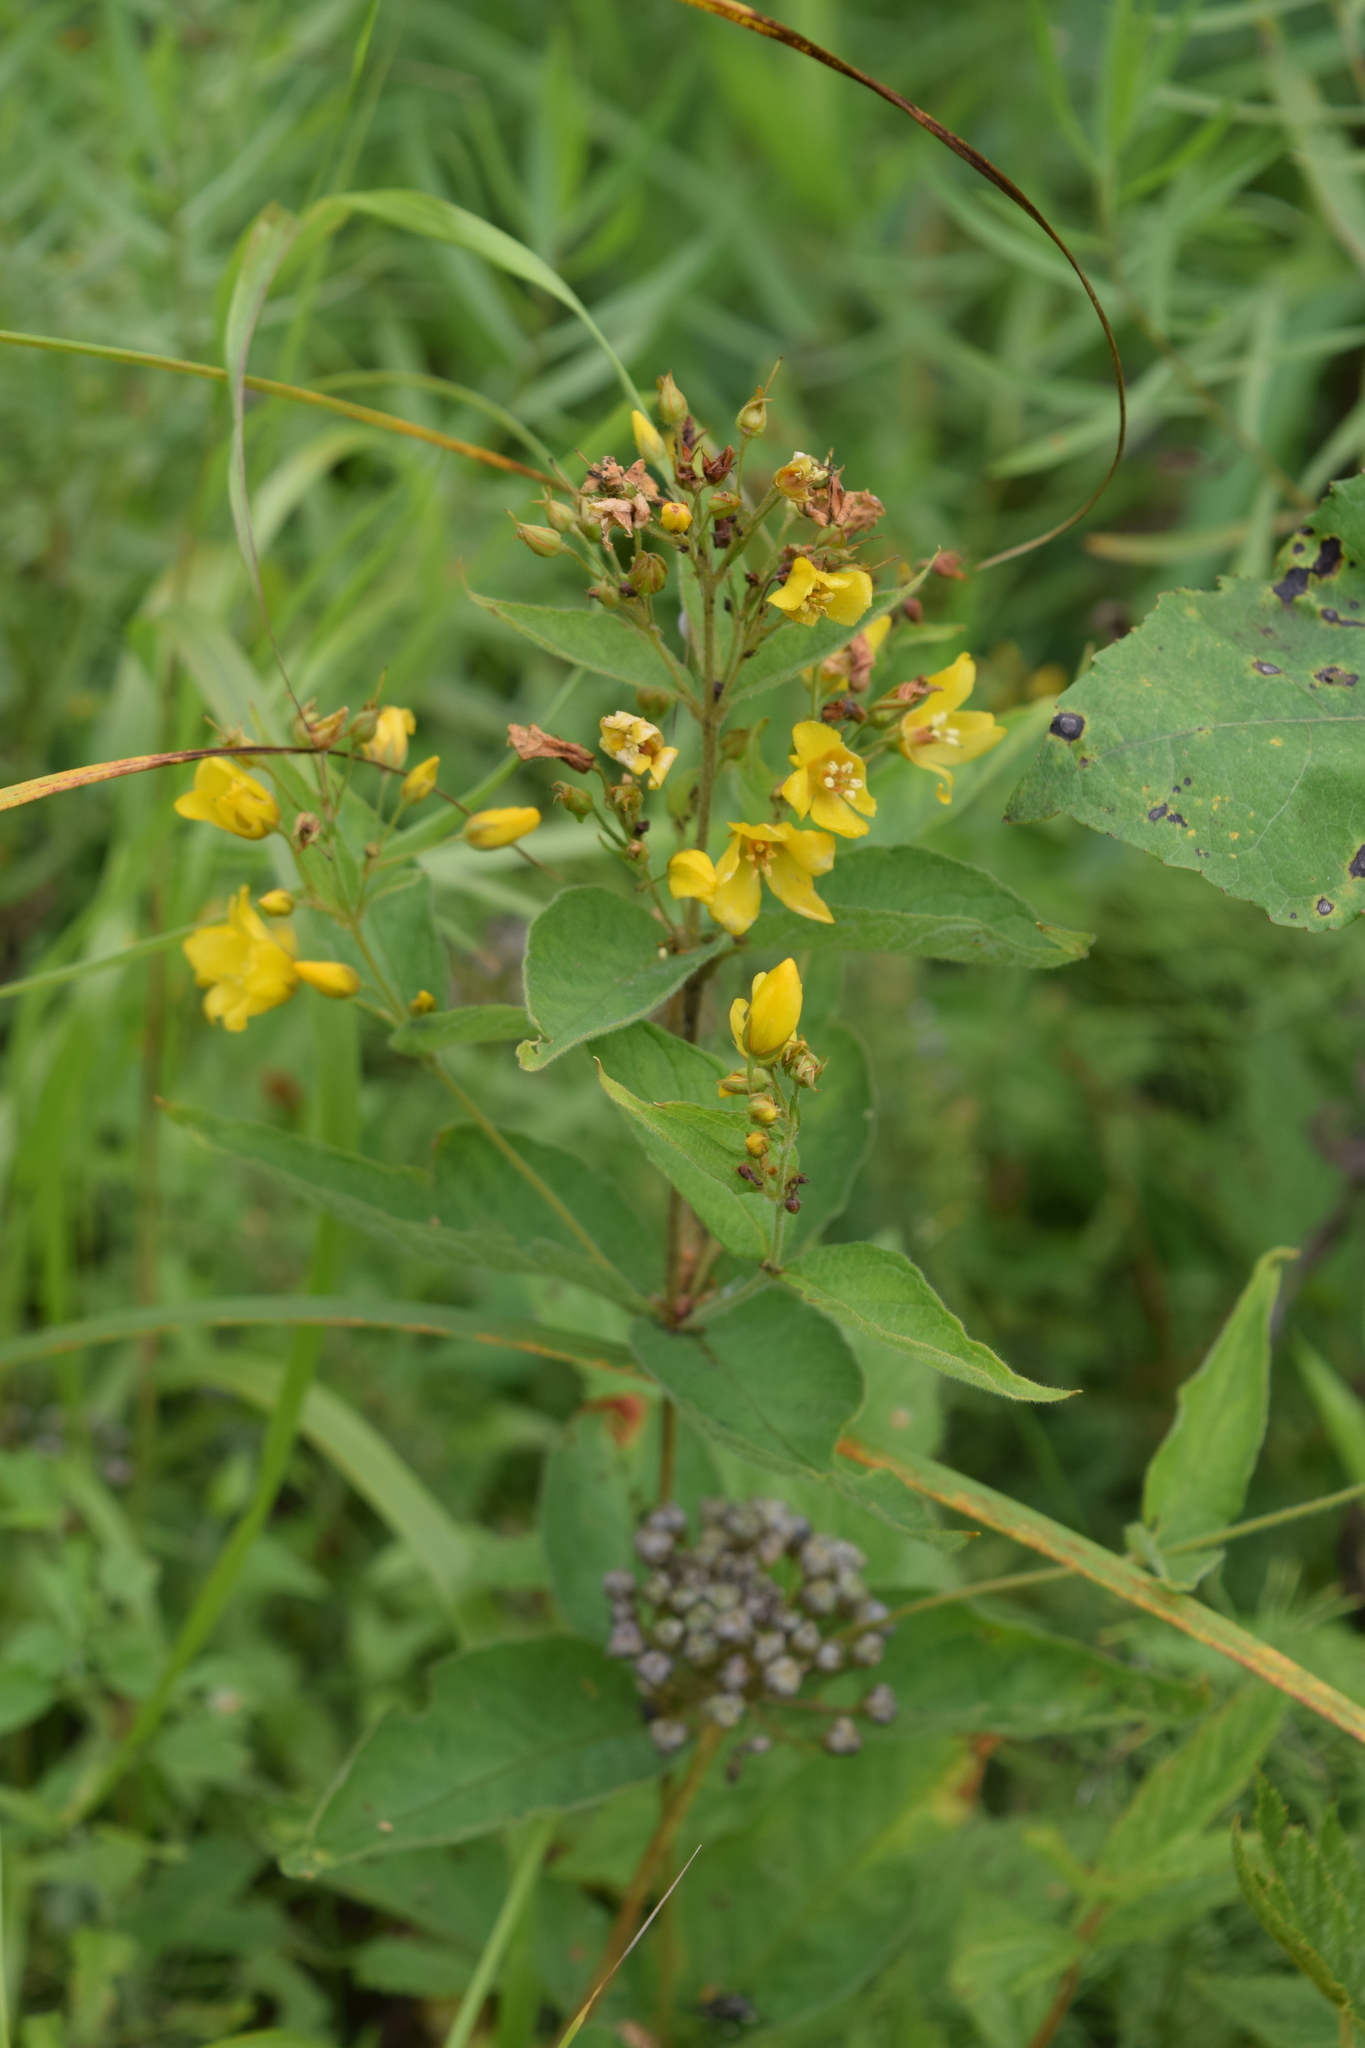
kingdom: Plantae
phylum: Tracheophyta
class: Magnoliopsida
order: Ericales
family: Primulaceae
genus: Lysimachia
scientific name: Lysimachia vulgaris
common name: Yellow loosestrife
